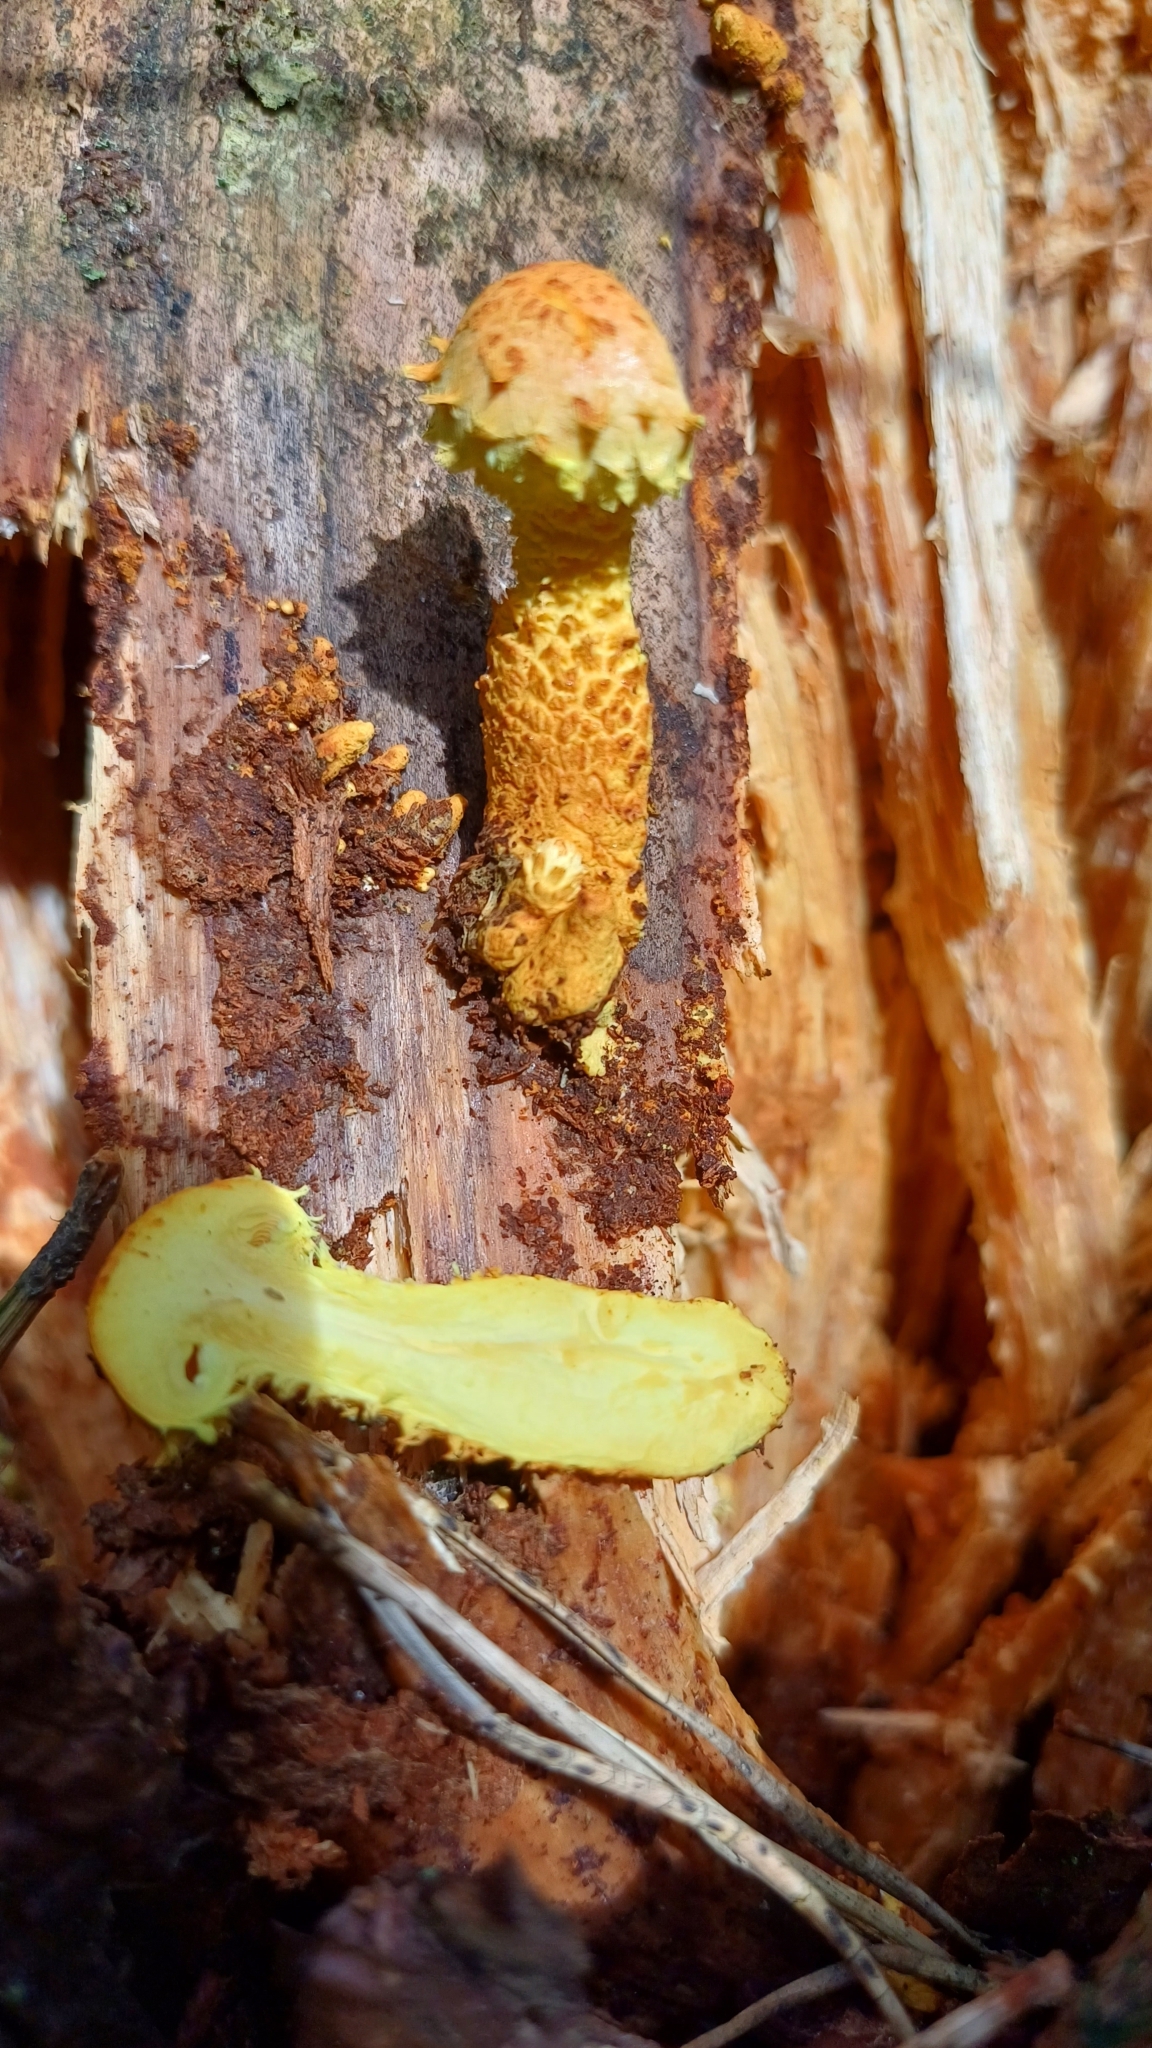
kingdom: Fungi
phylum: Basidiomycota
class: Agaricomycetes
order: Agaricales
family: Strophariaceae
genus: Pholiota
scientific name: Pholiota flammans
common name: Flaming scalycap
